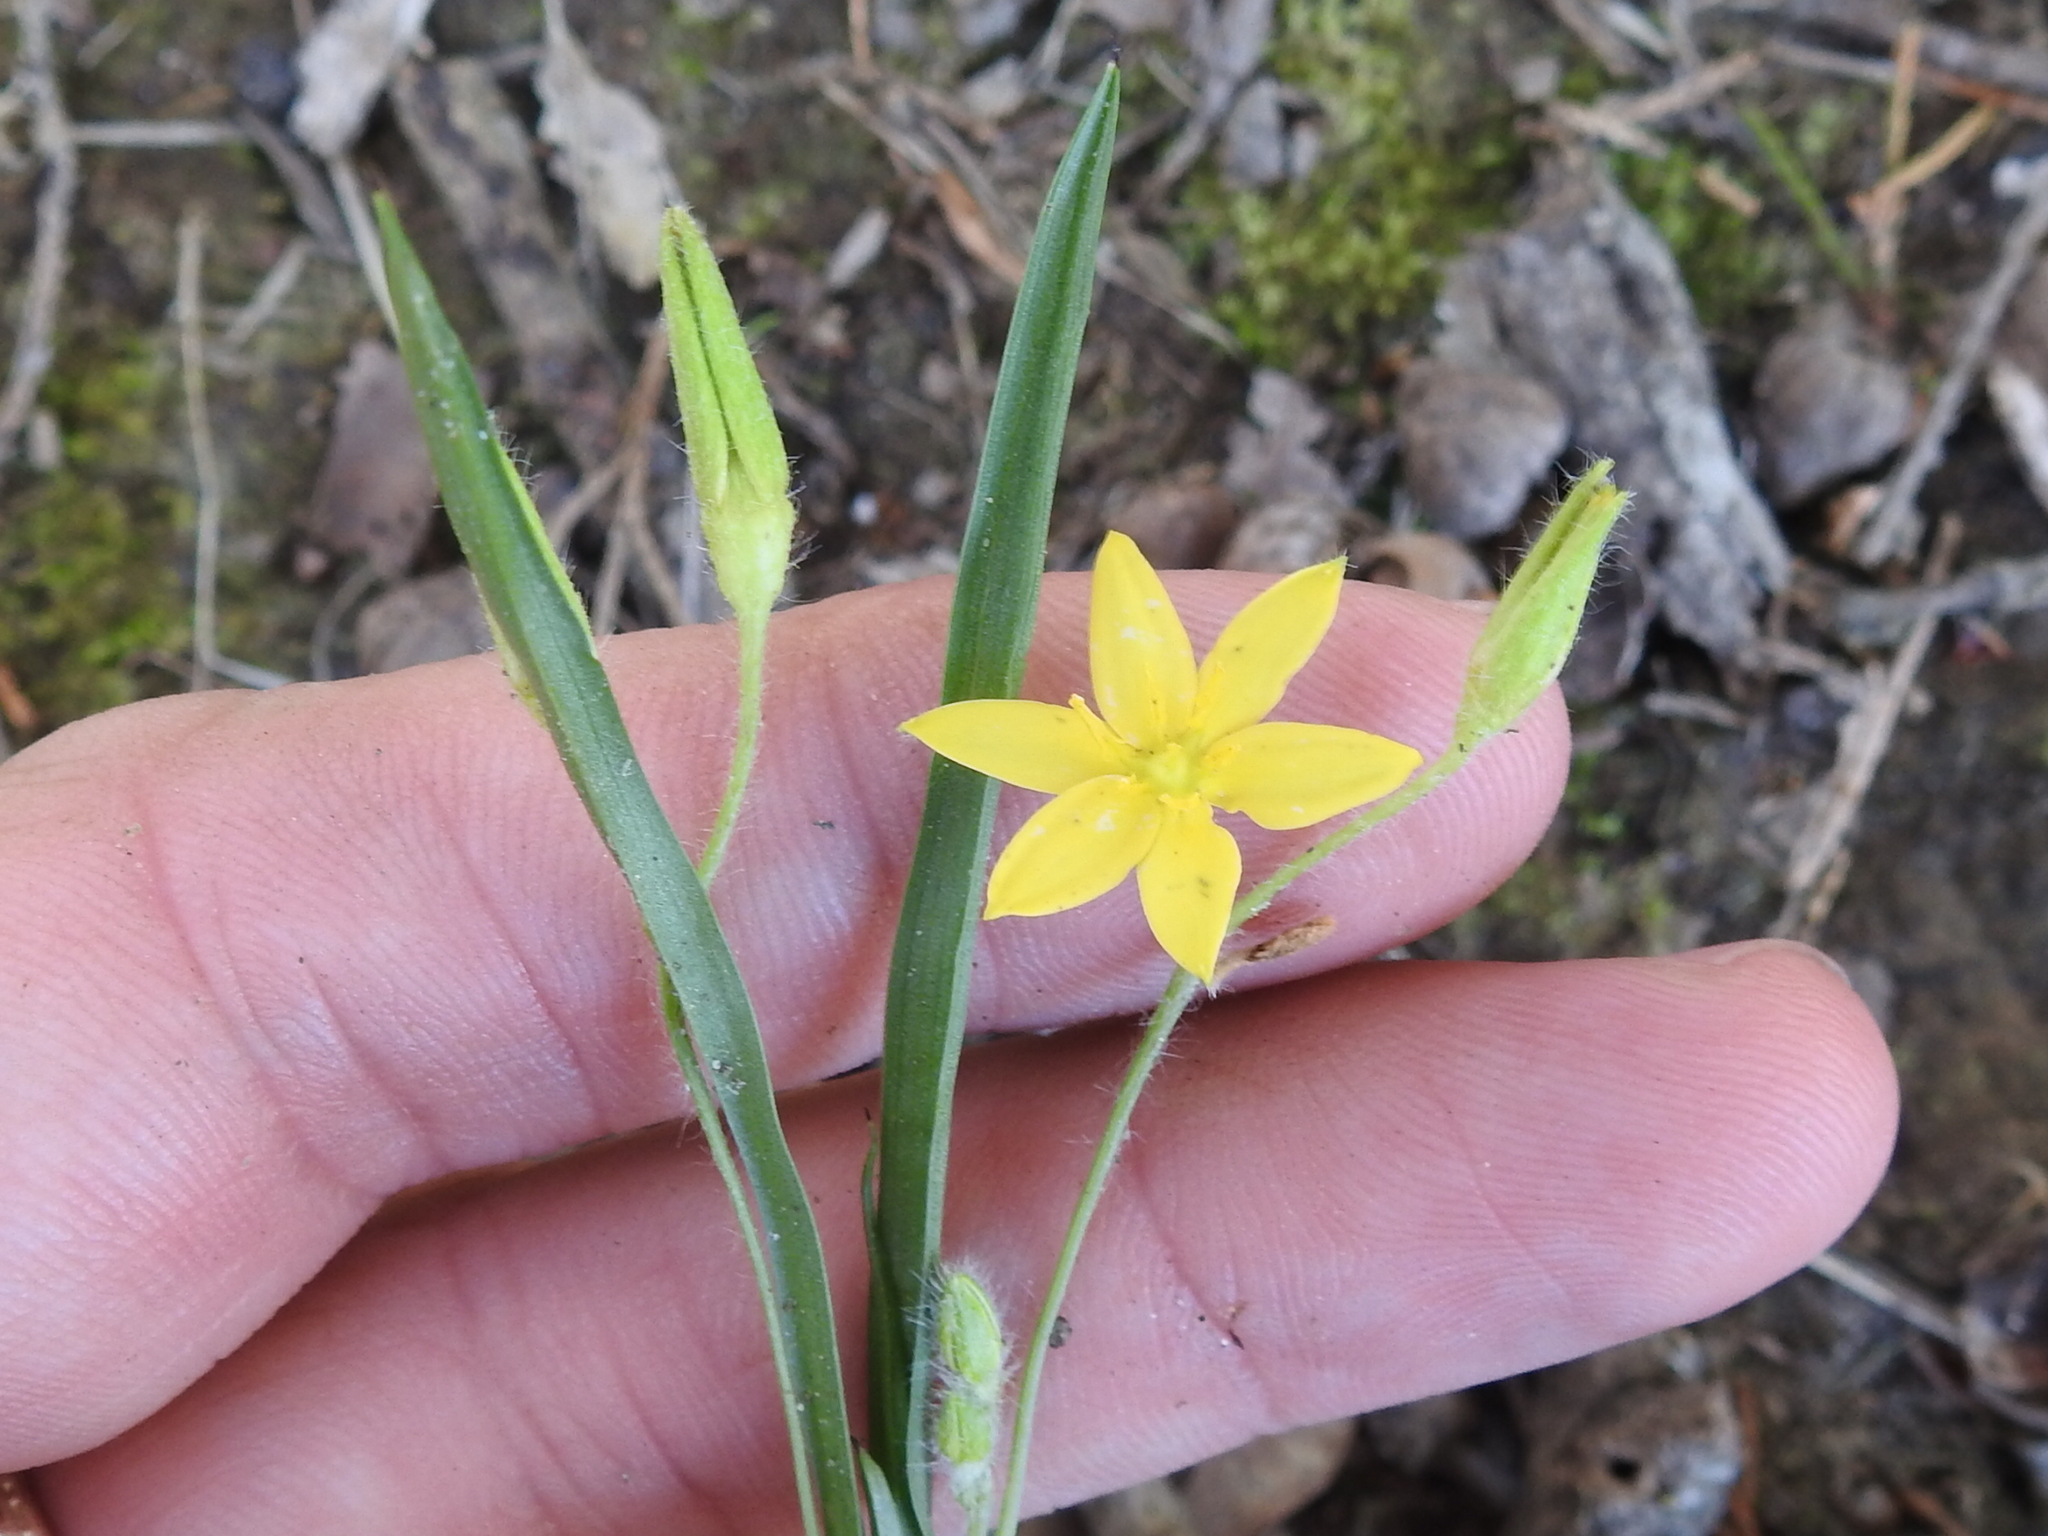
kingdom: Plantae
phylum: Tracheophyta
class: Liliopsida
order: Asparagales
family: Hypoxidaceae
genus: Hypoxis
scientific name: Hypoxis hirsuta
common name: Common goldstar
